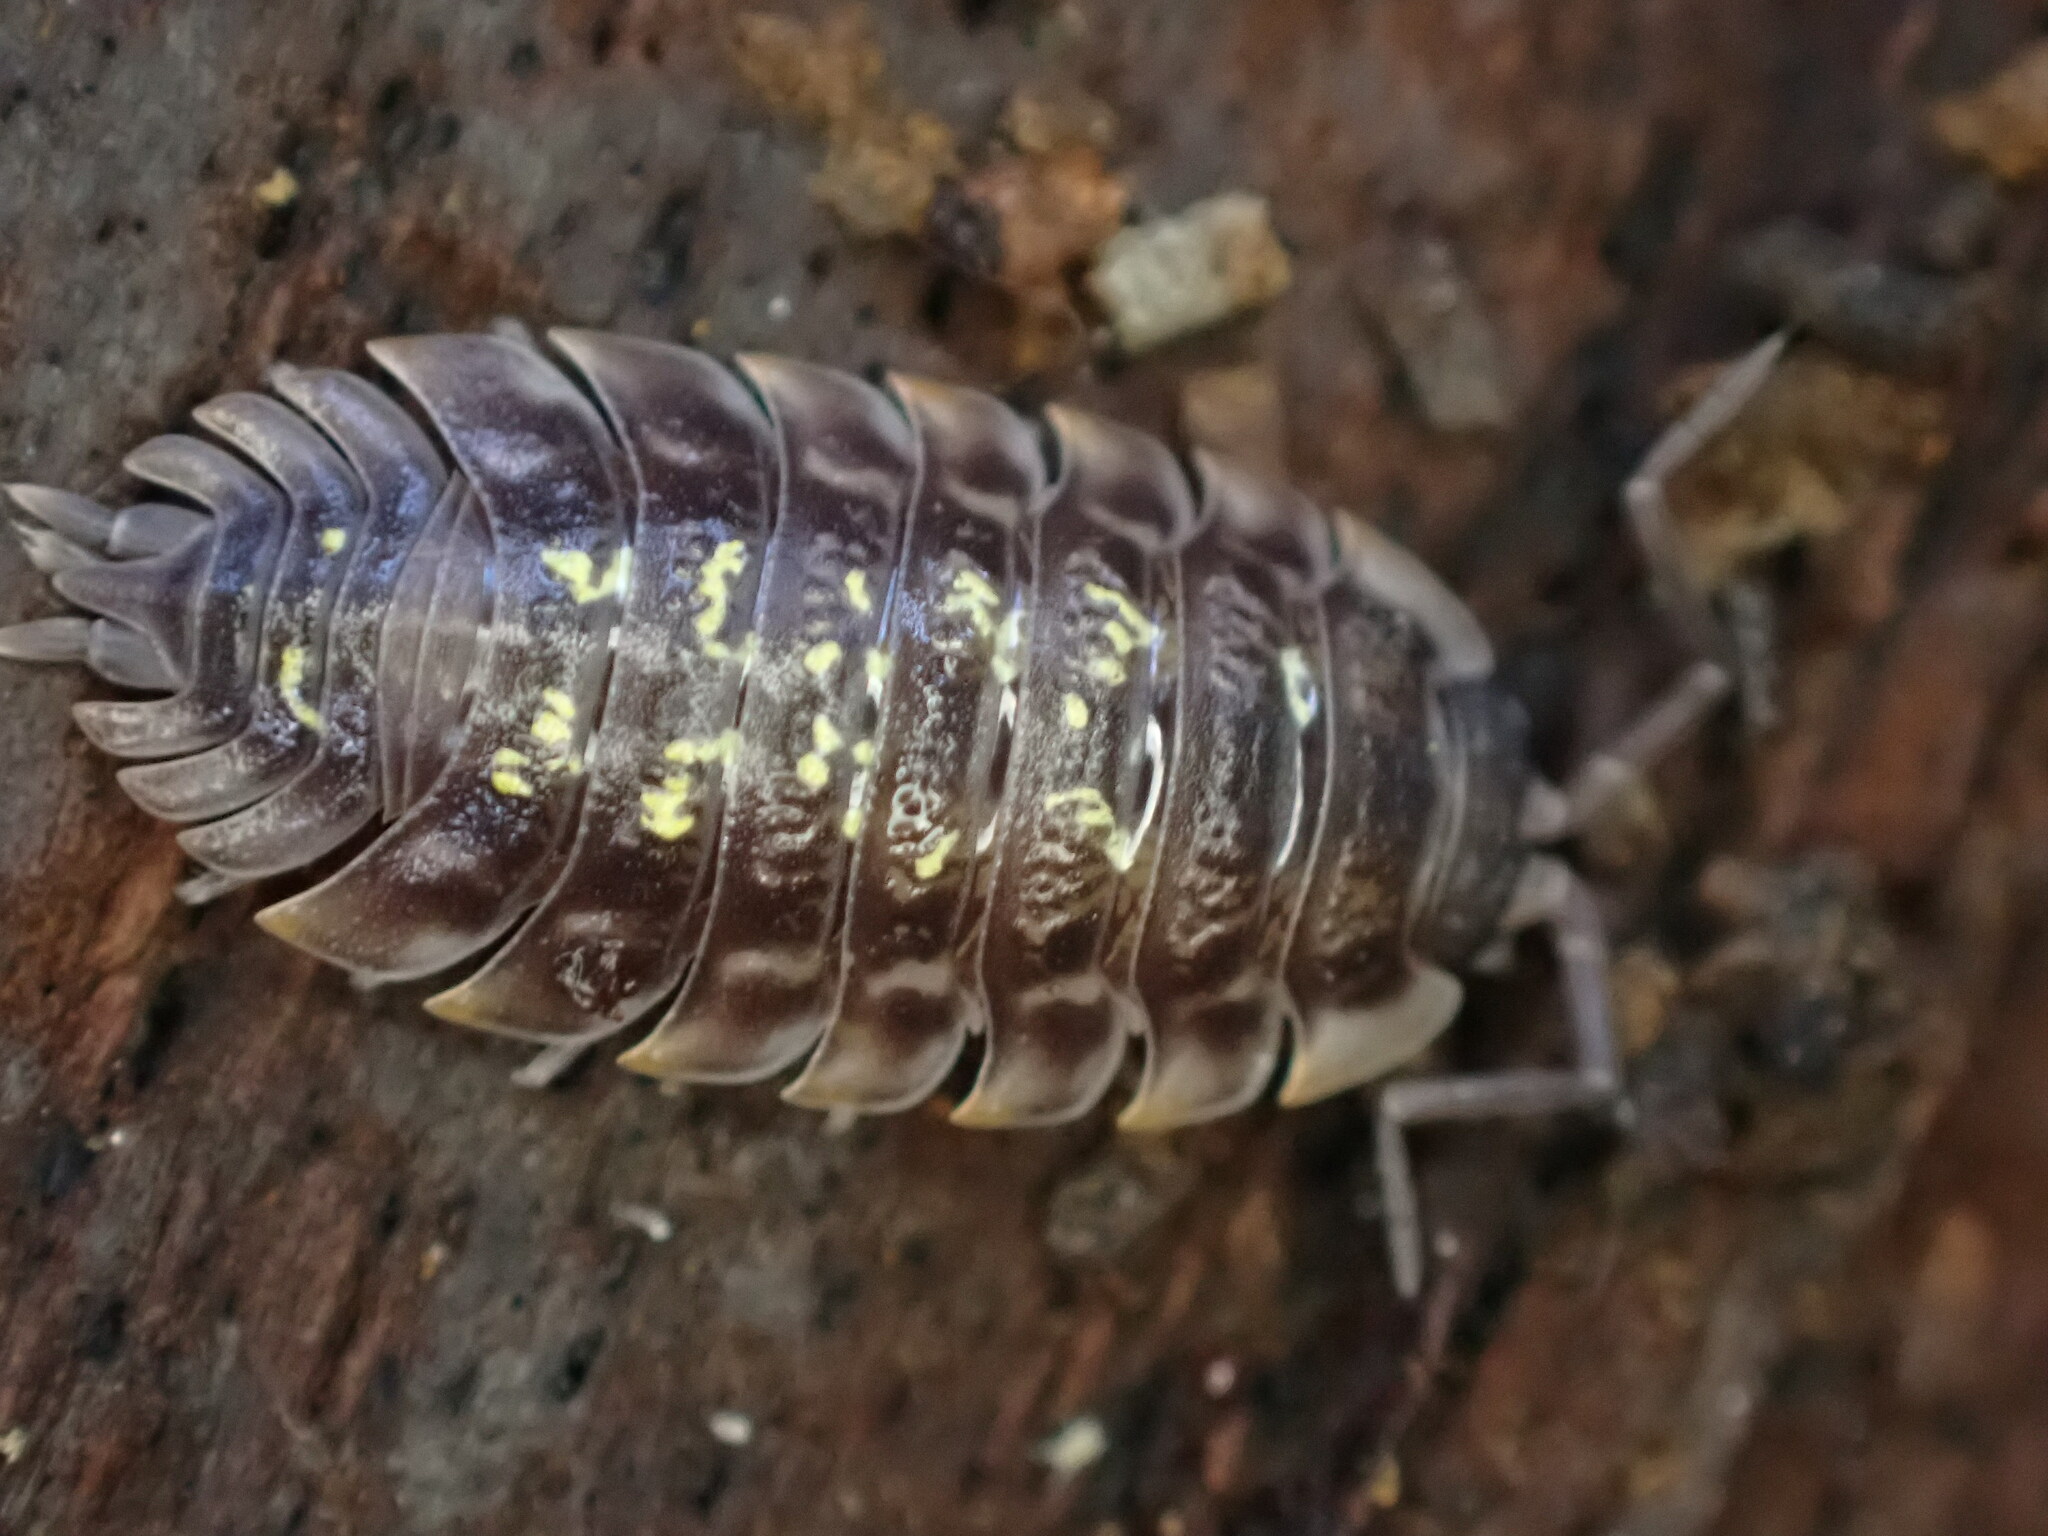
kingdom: Animalia
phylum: Arthropoda
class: Malacostraca
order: Isopoda
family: Oniscidae
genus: Oniscus
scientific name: Oniscus asellus
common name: Common shiny woodlouse
